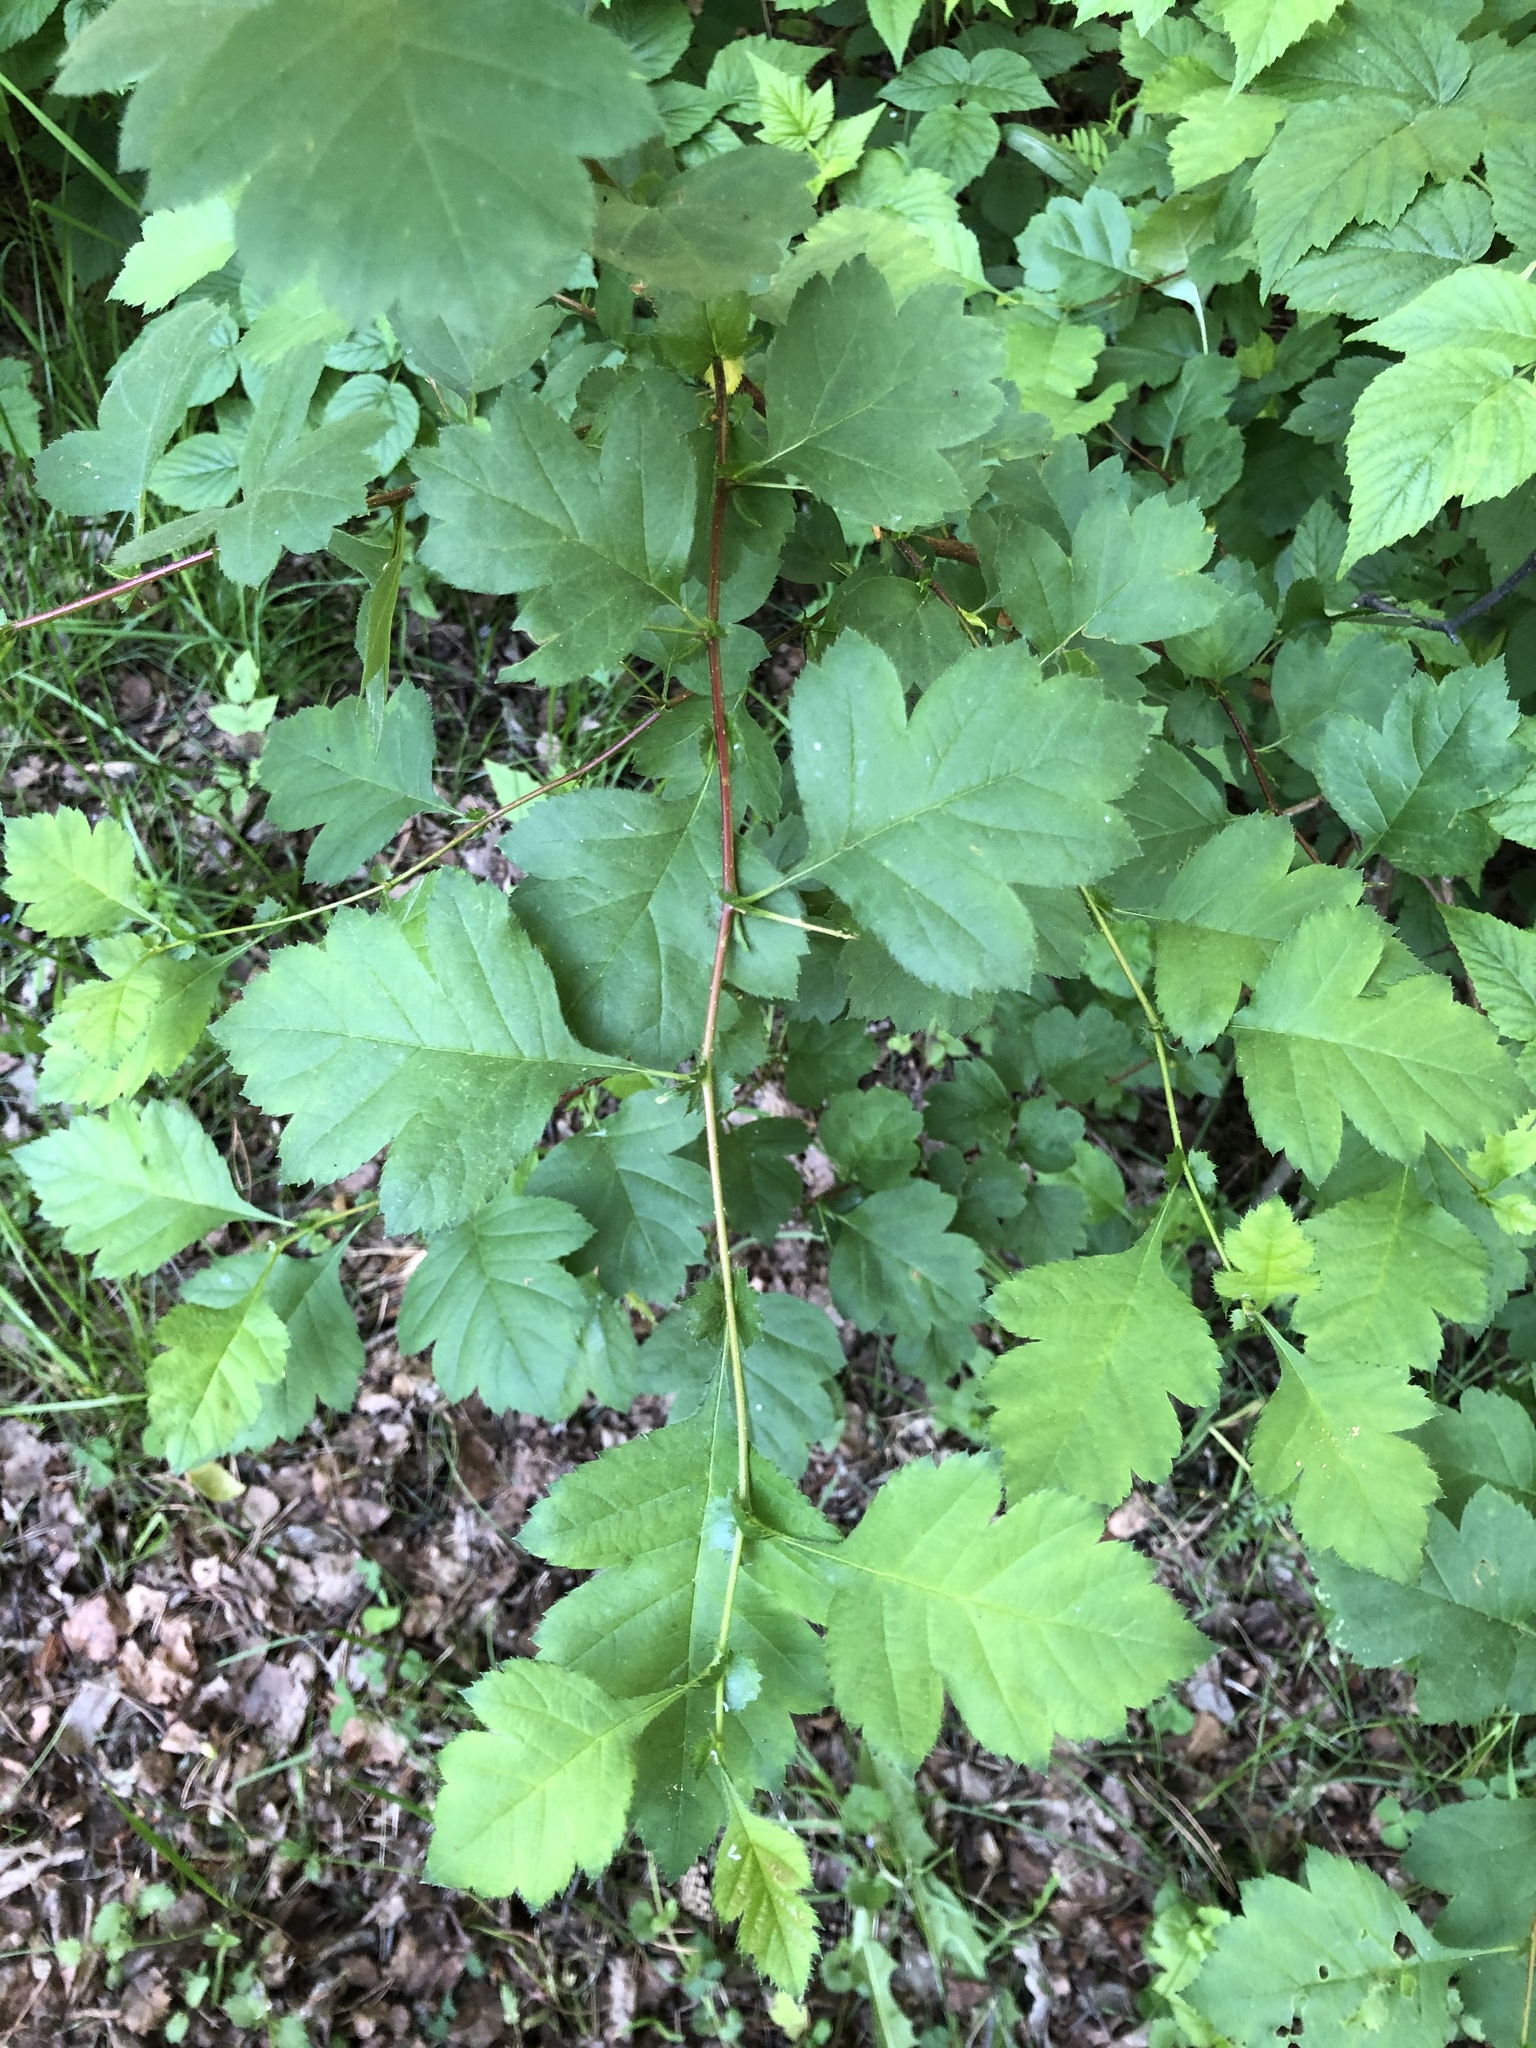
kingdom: Plantae
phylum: Tracheophyta
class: Magnoliopsida
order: Rosales
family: Rosaceae
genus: Crataegus
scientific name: Crataegus sanguinea
